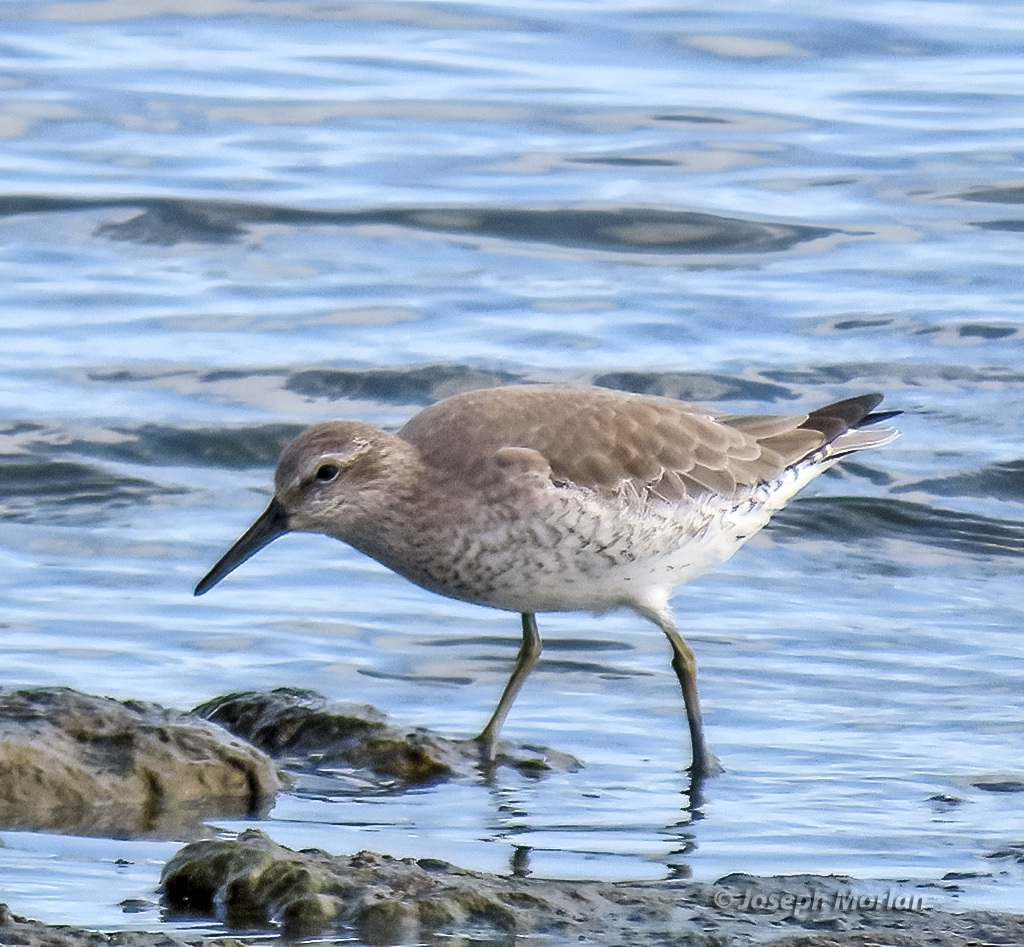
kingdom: Animalia
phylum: Chordata
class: Aves
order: Charadriiformes
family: Scolopacidae
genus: Calidris
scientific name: Calidris canutus
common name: Red knot
